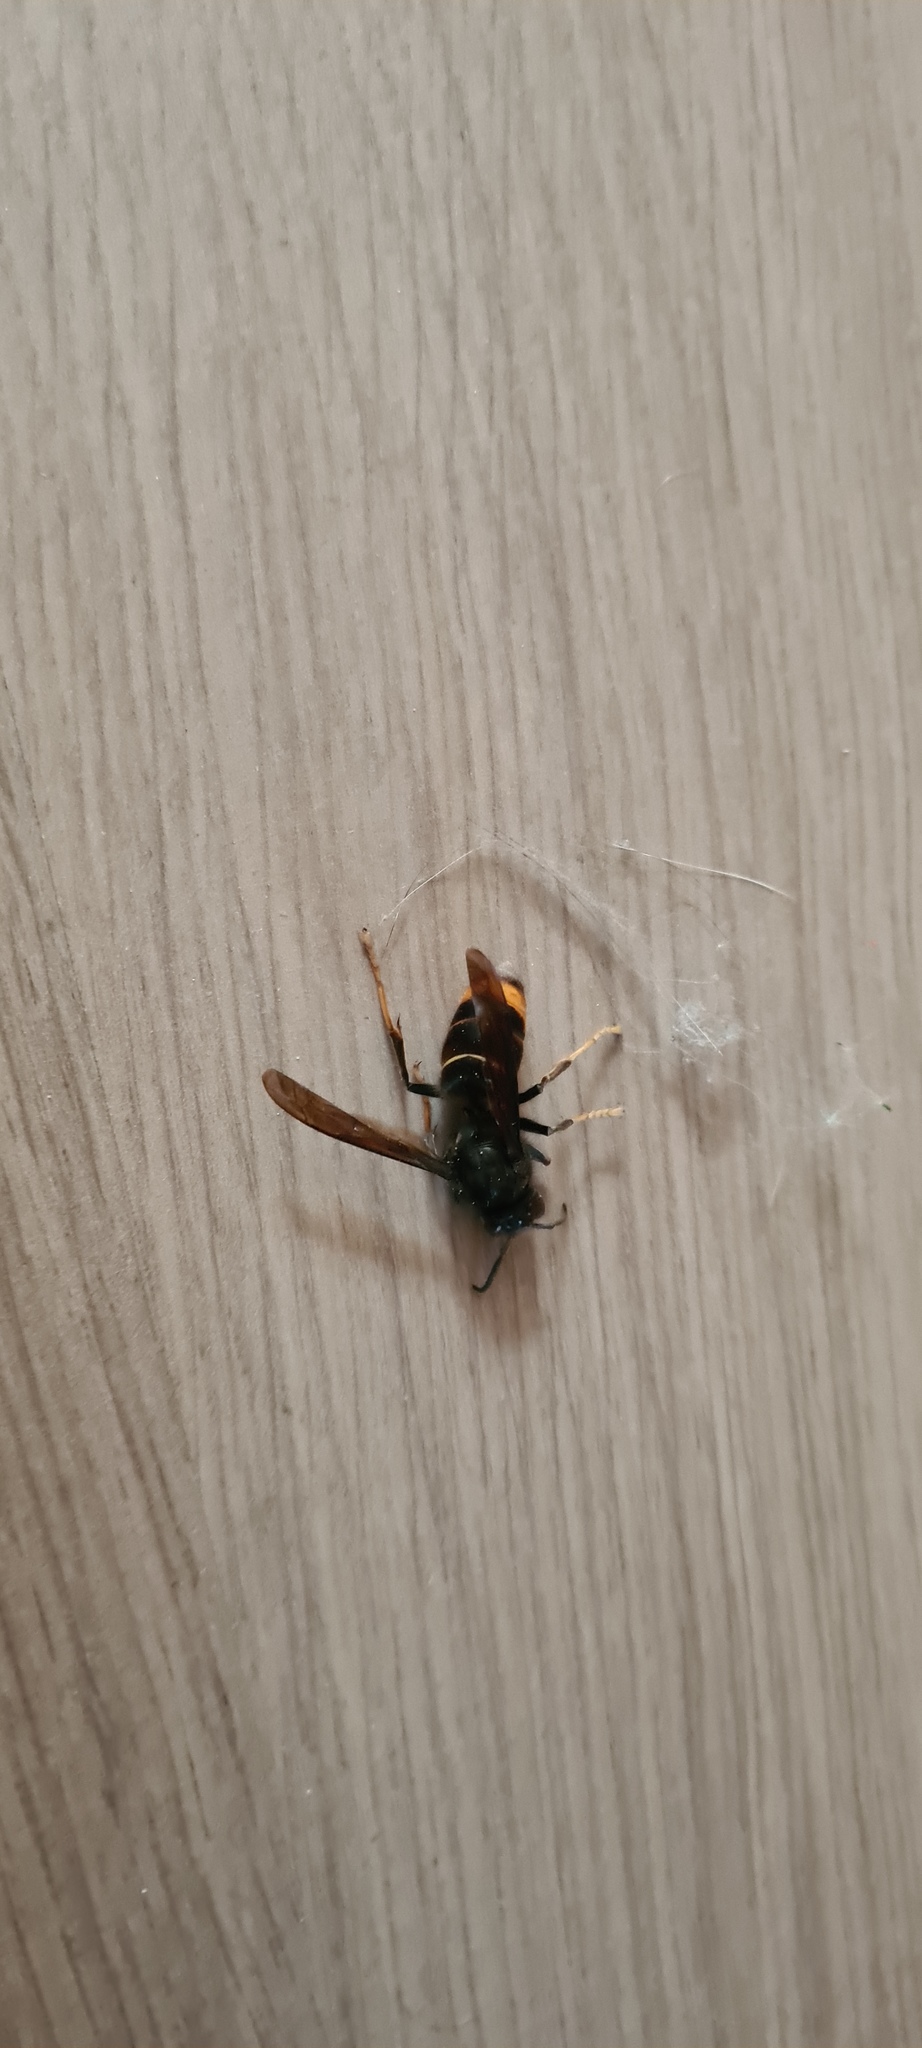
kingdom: Animalia
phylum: Arthropoda
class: Insecta
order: Hymenoptera
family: Vespidae
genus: Vespa
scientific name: Vespa velutina
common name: Asian hornet
